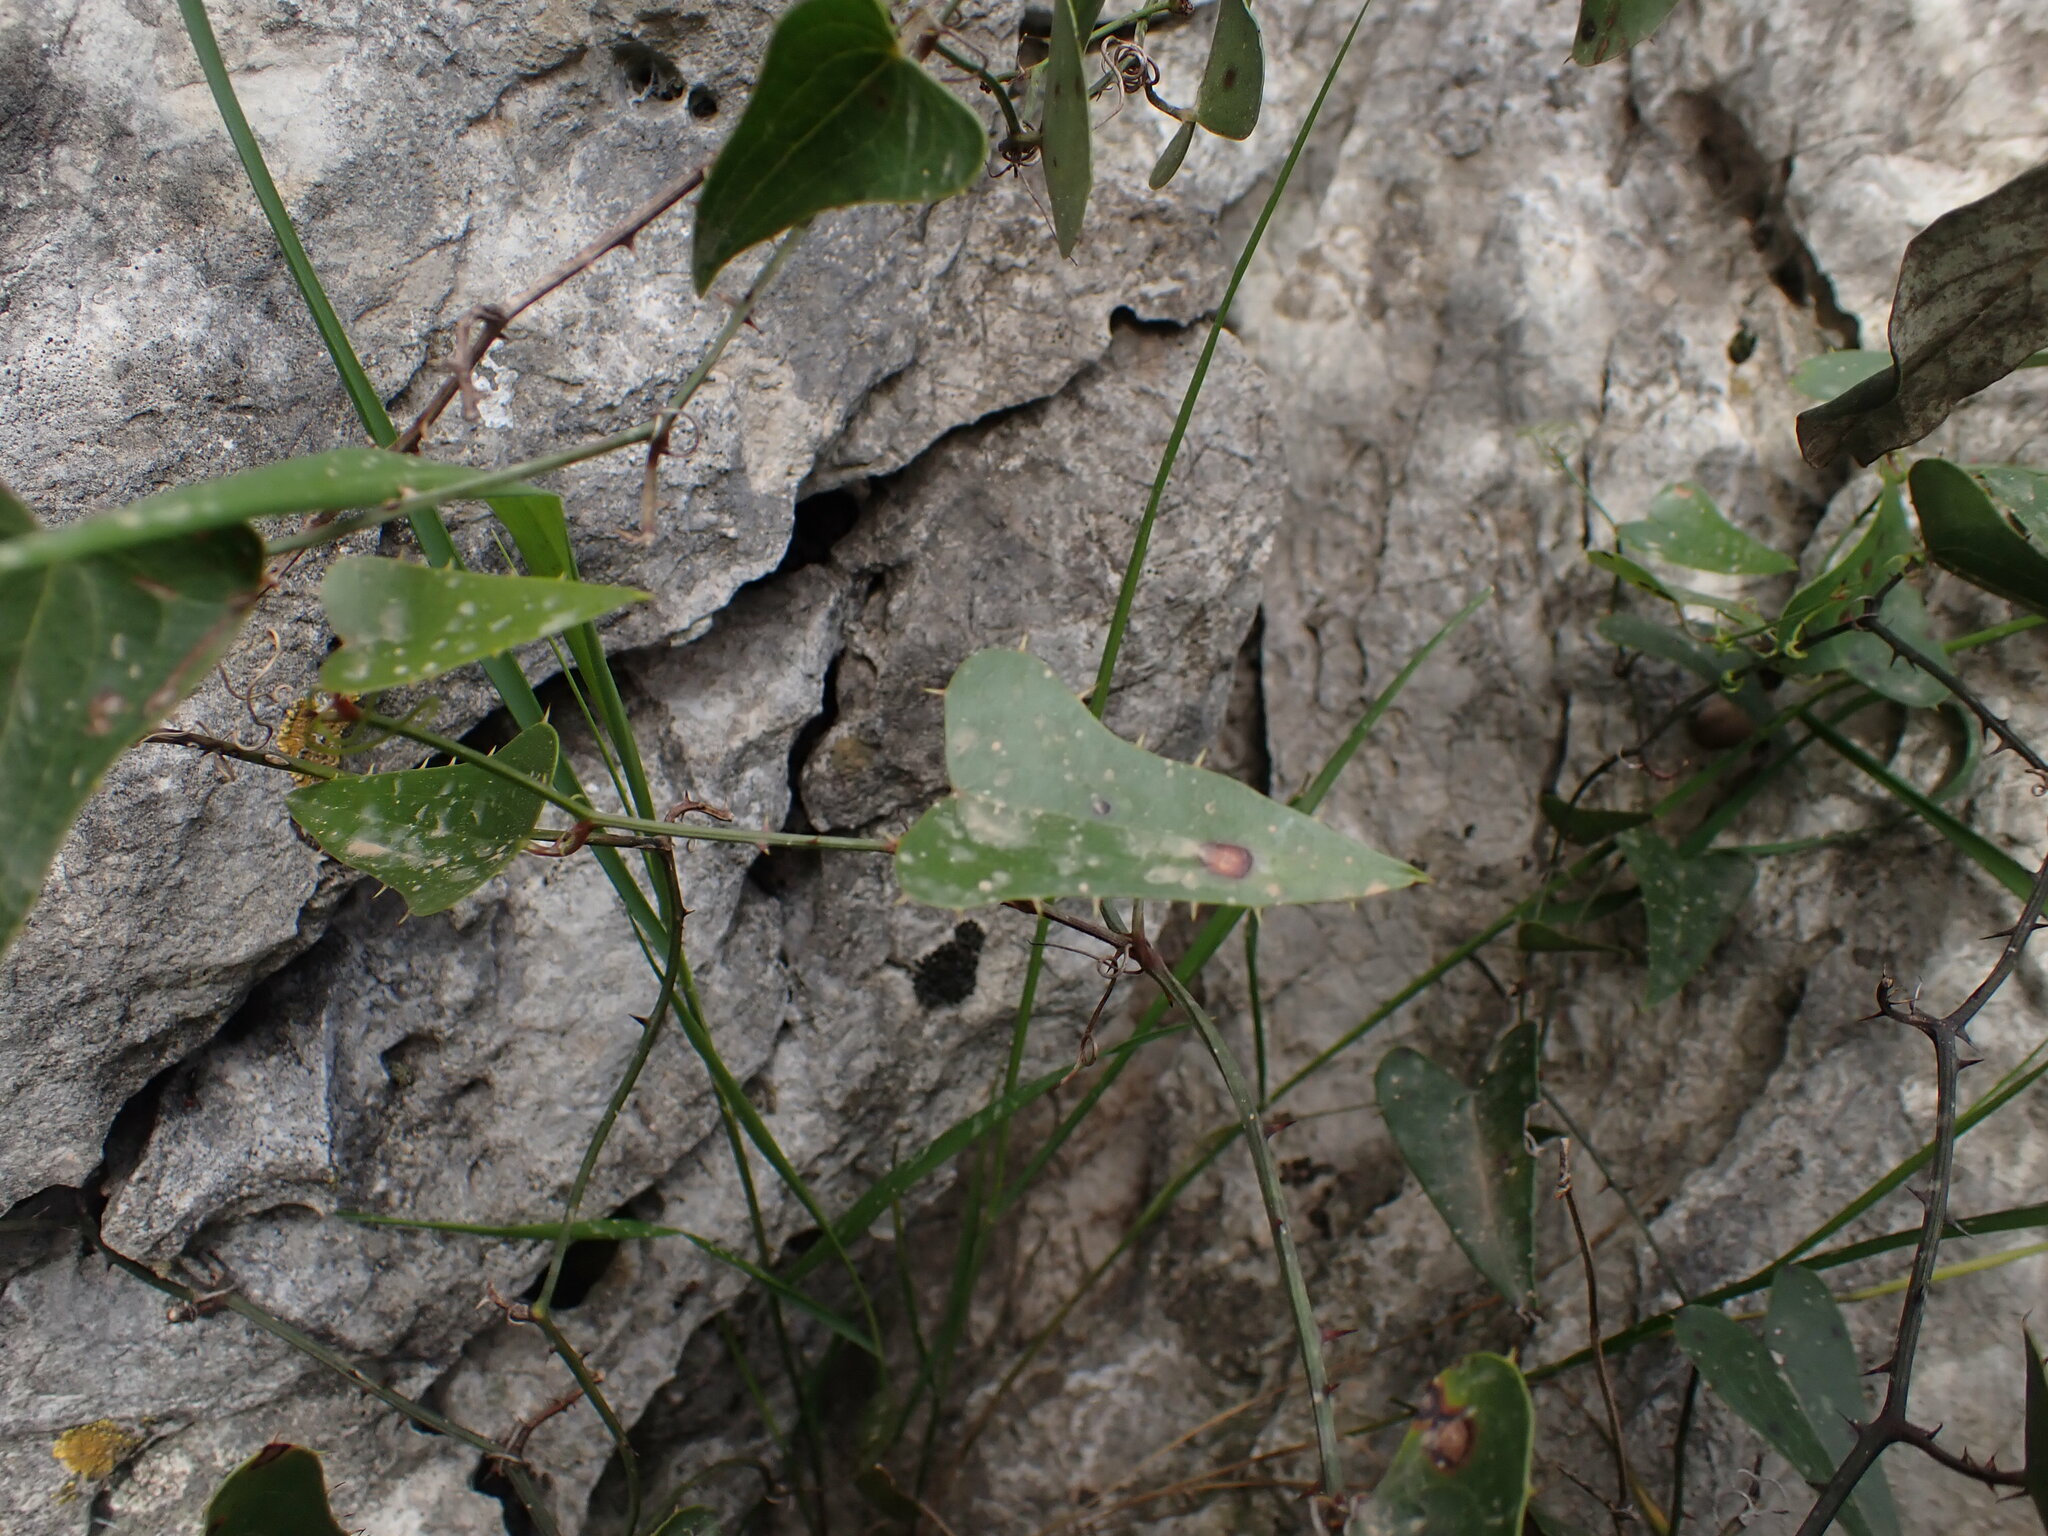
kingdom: Plantae
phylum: Tracheophyta
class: Liliopsida
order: Liliales
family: Smilacaceae
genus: Smilax
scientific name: Smilax aspera
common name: Common smilax
